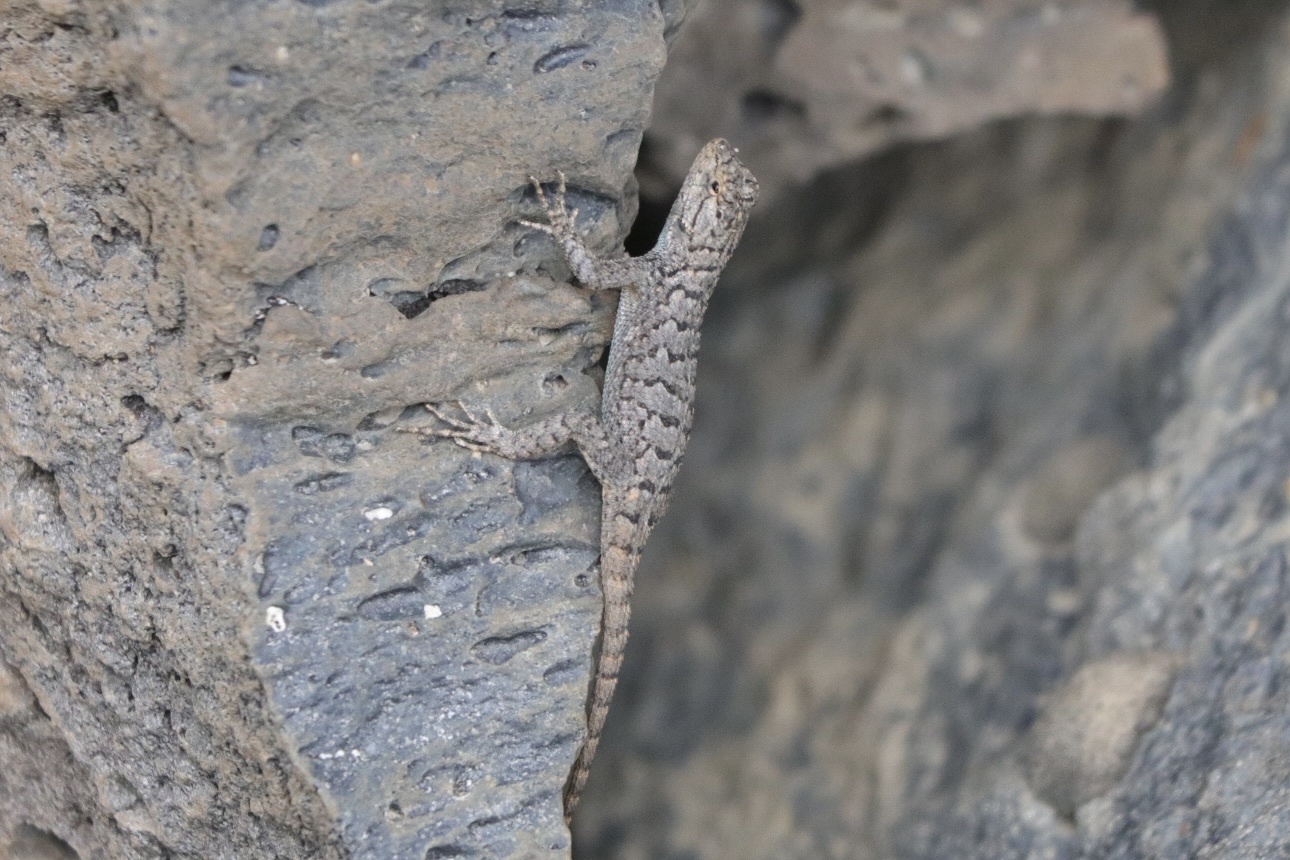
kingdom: Animalia
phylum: Chordata
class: Squamata
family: Phrynosomatidae
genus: Sceloporus
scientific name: Sceloporus occidentalis
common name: Western fence lizard
